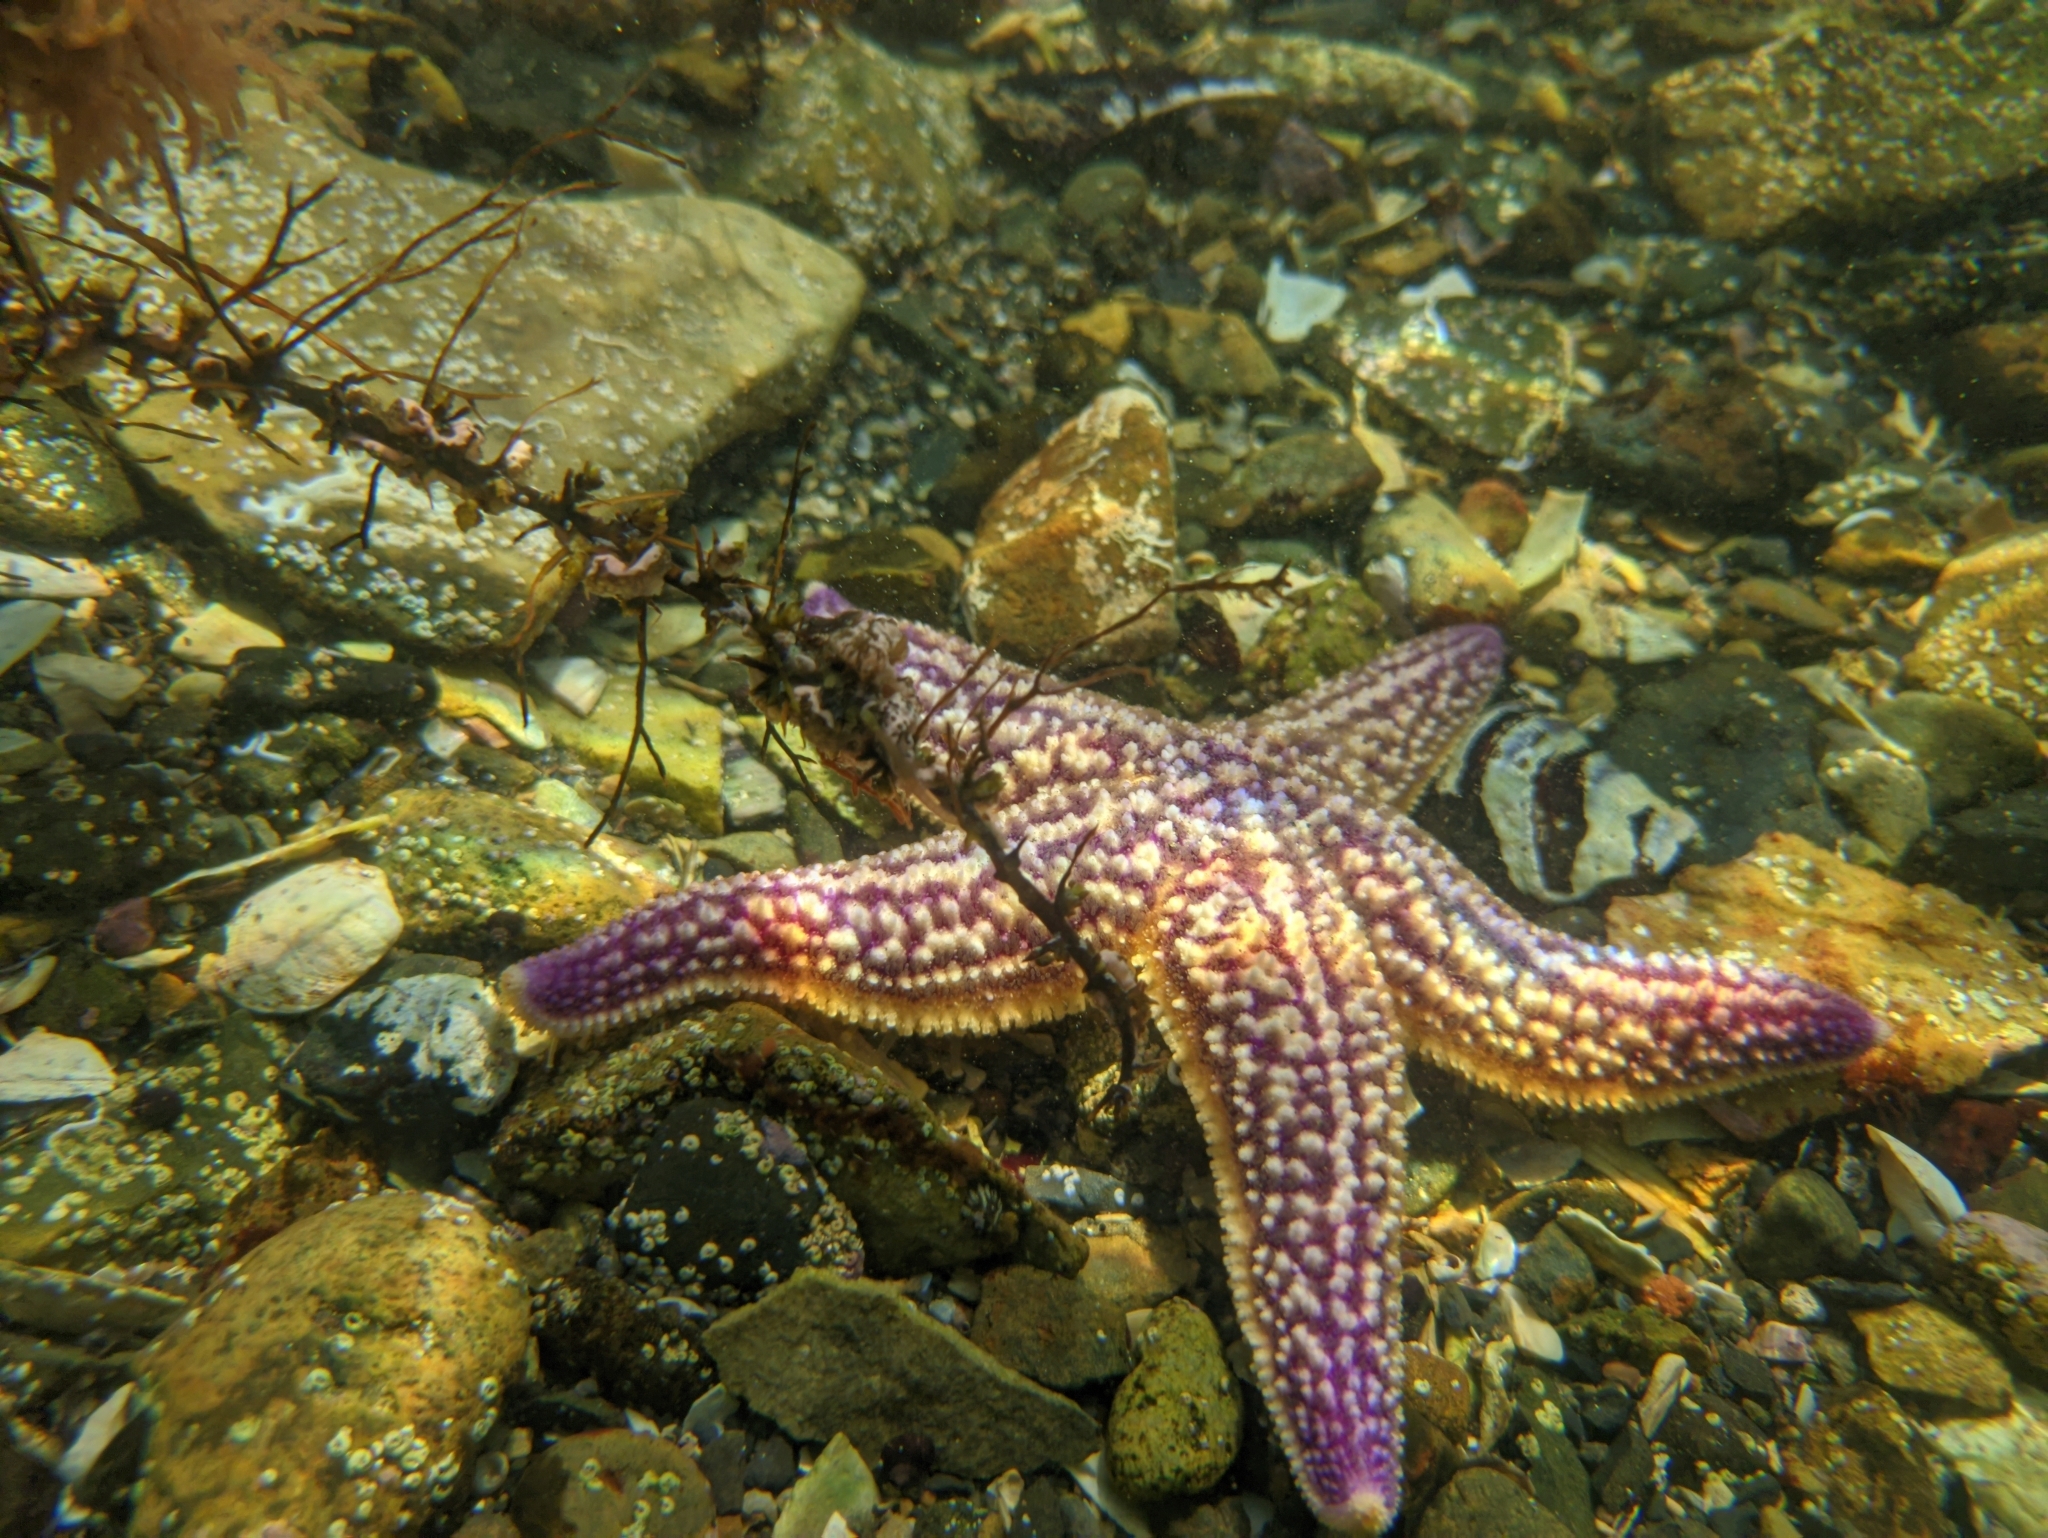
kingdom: Animalia
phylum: Echinodermata
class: Asteroidea
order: Forcipulatida
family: Asteriidae
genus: Asterias
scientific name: Asterias amurensis
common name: Flat-bottomed star
